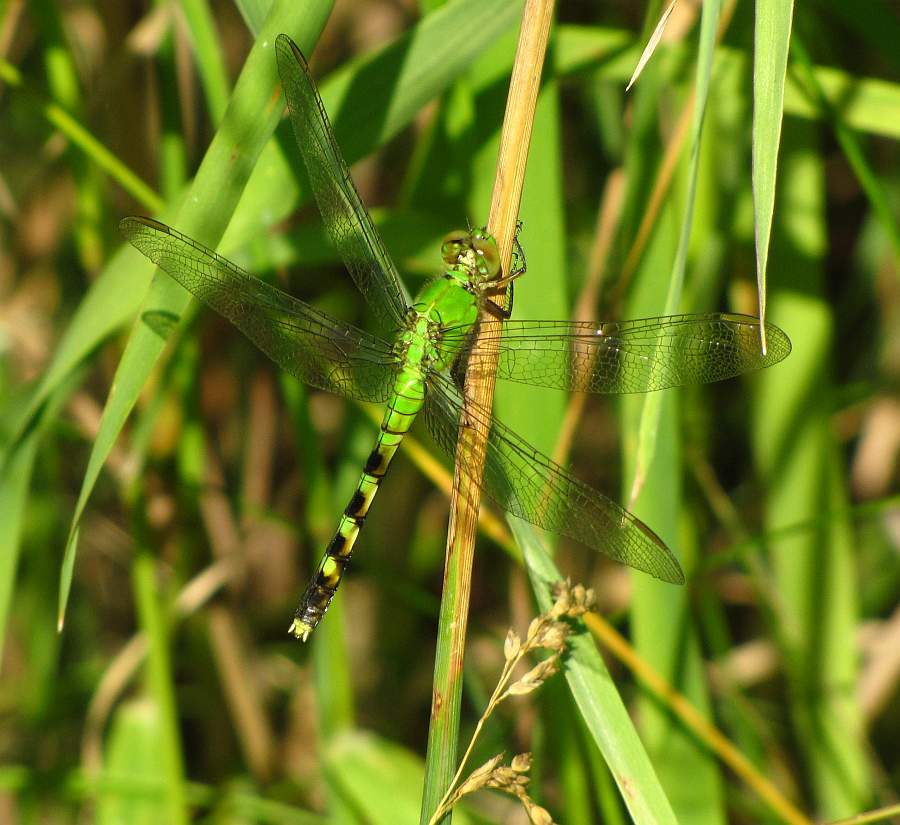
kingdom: Animalia
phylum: Arthropoda
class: Insecta
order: Odonata
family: Libellulidae
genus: Erythemis
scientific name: Erythemis simplicicollis
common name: Eastern pondhawk
